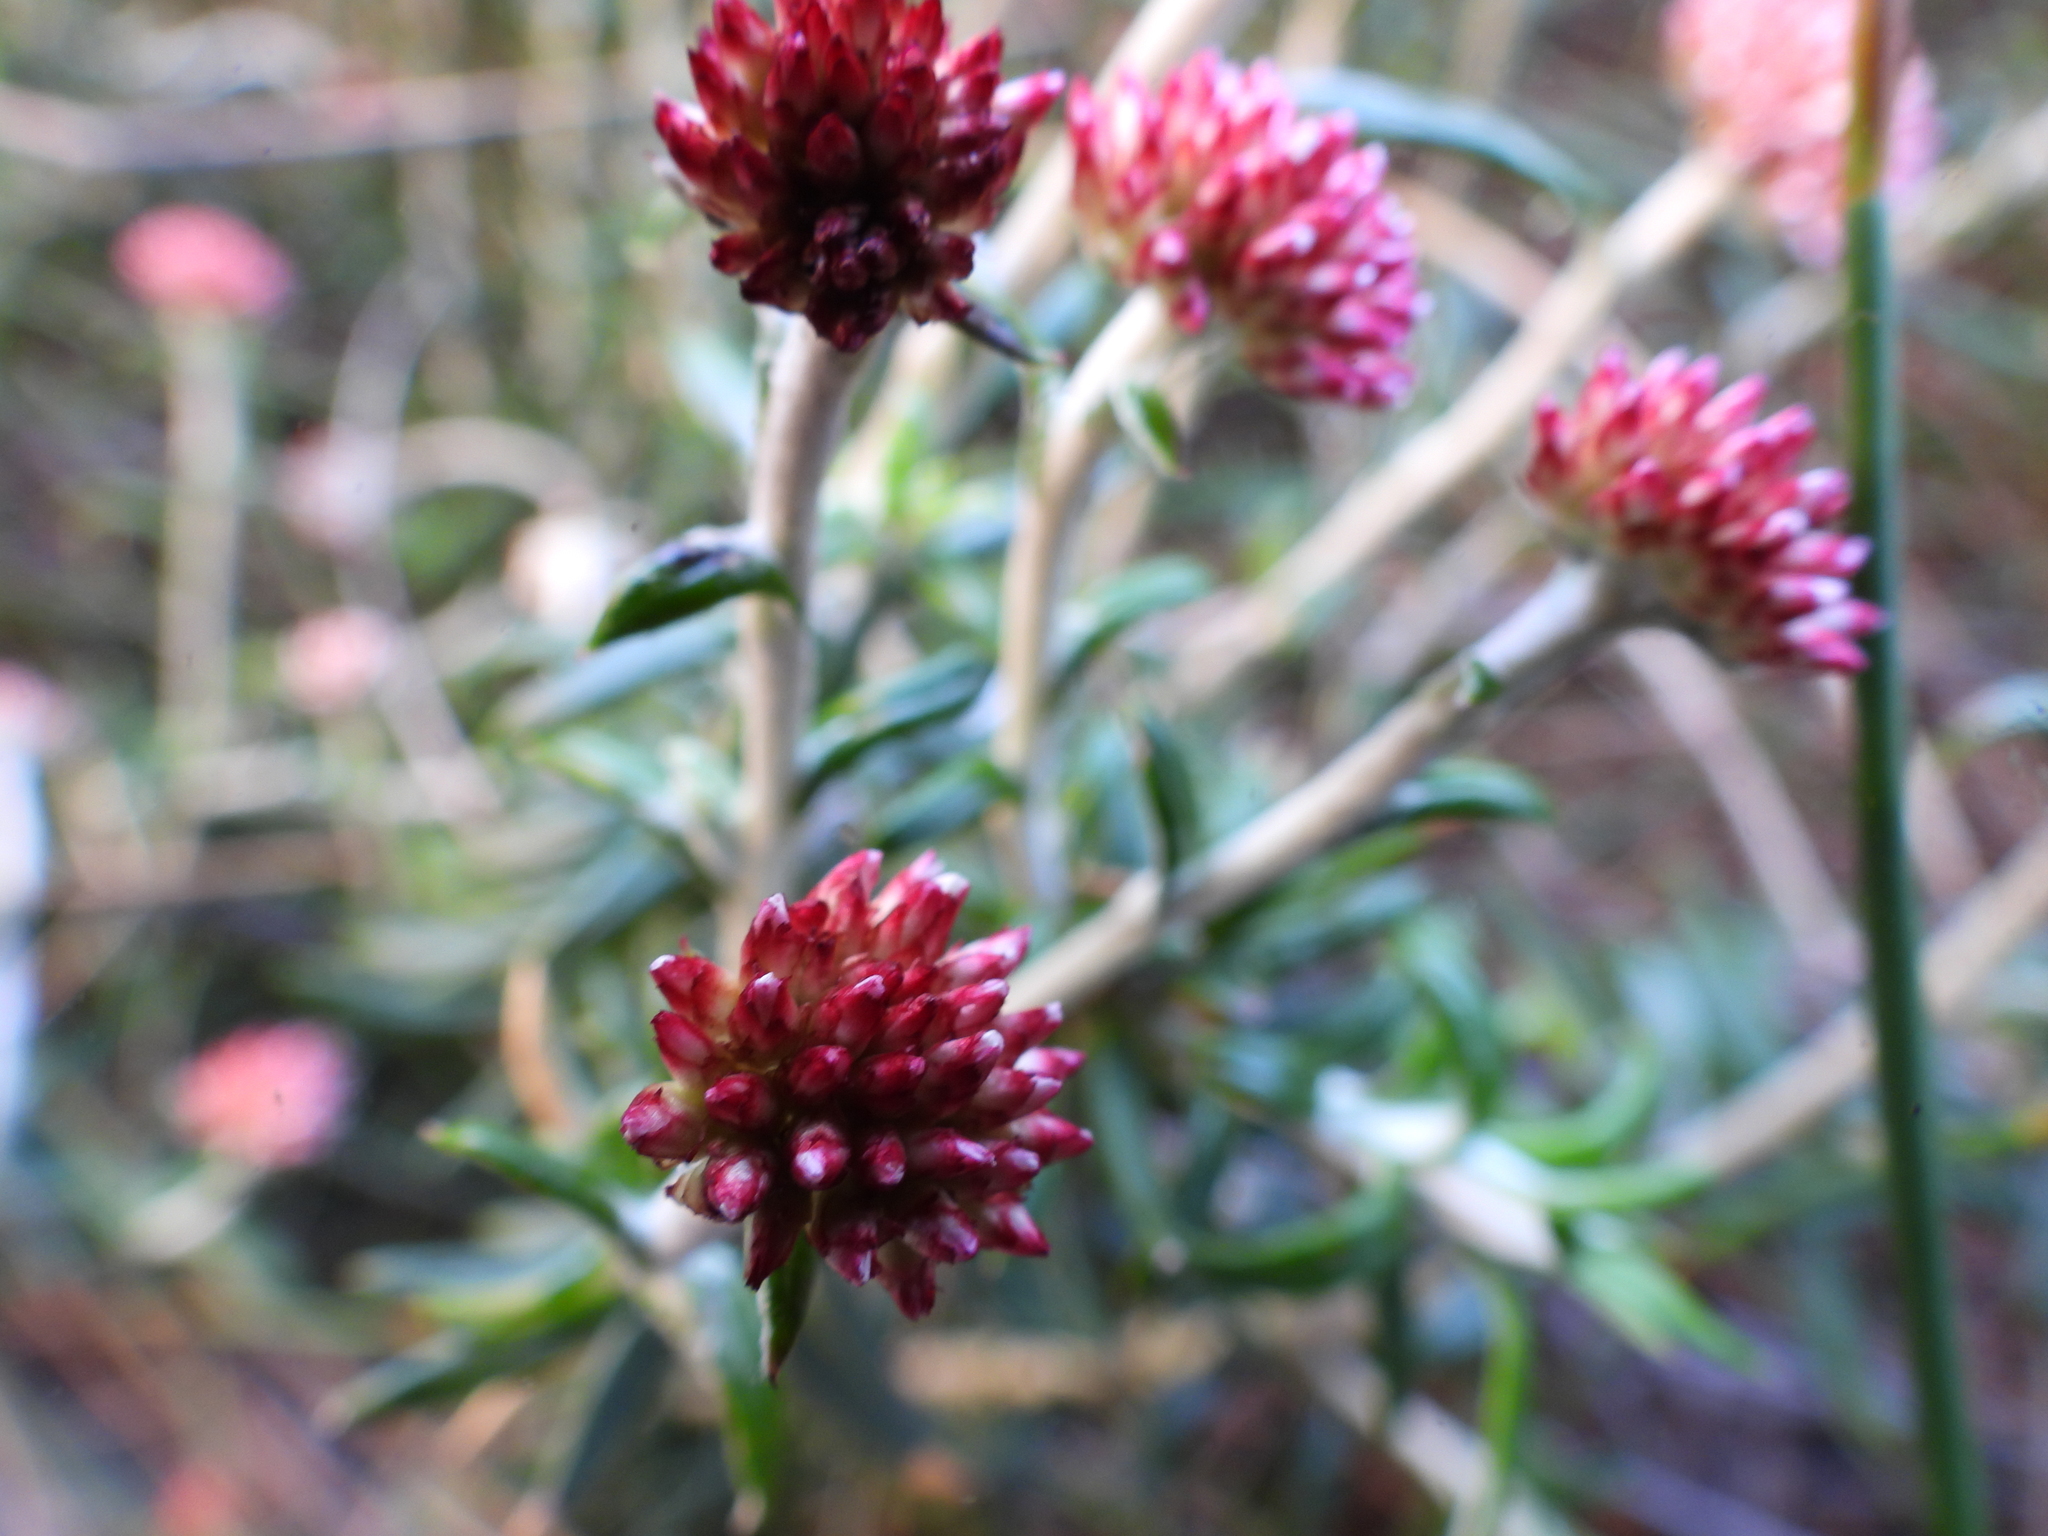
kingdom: Plantae
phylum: Tracheophyta
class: Magnoliopsida
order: Asterales
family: Asteraceae
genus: Anaxeton
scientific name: Anaxeton arborescens
